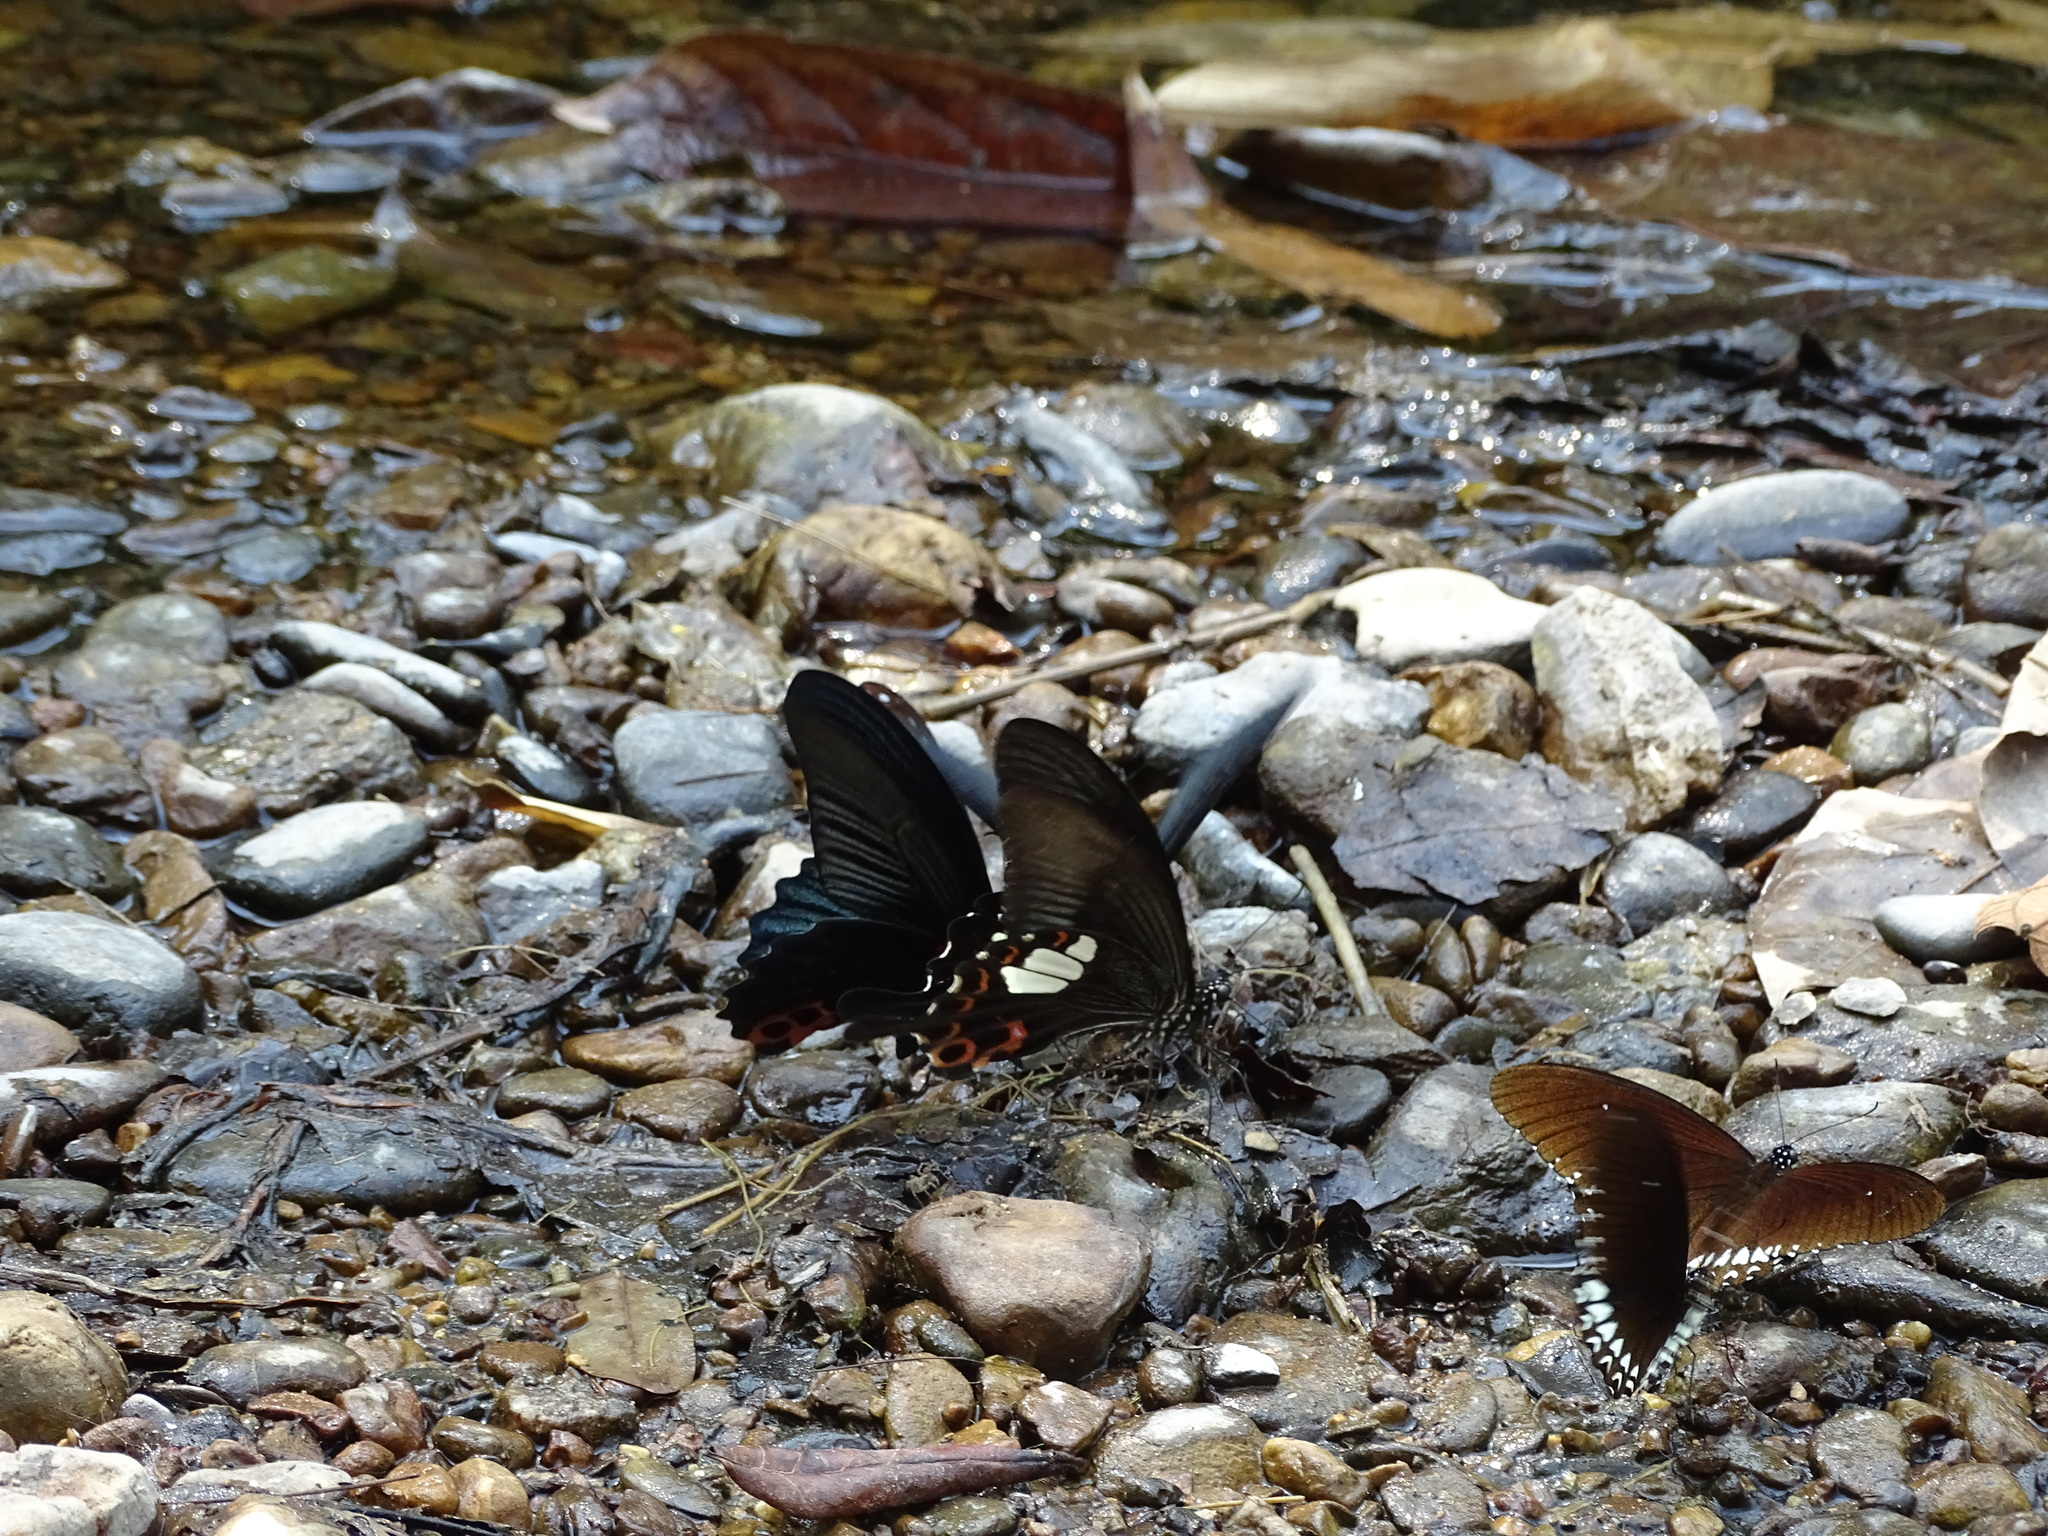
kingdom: Animalia
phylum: Arthropoda
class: Insecta
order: Lepidoptera
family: Papilionidae
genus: Papilio
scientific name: Papilio helenus
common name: Red helen
